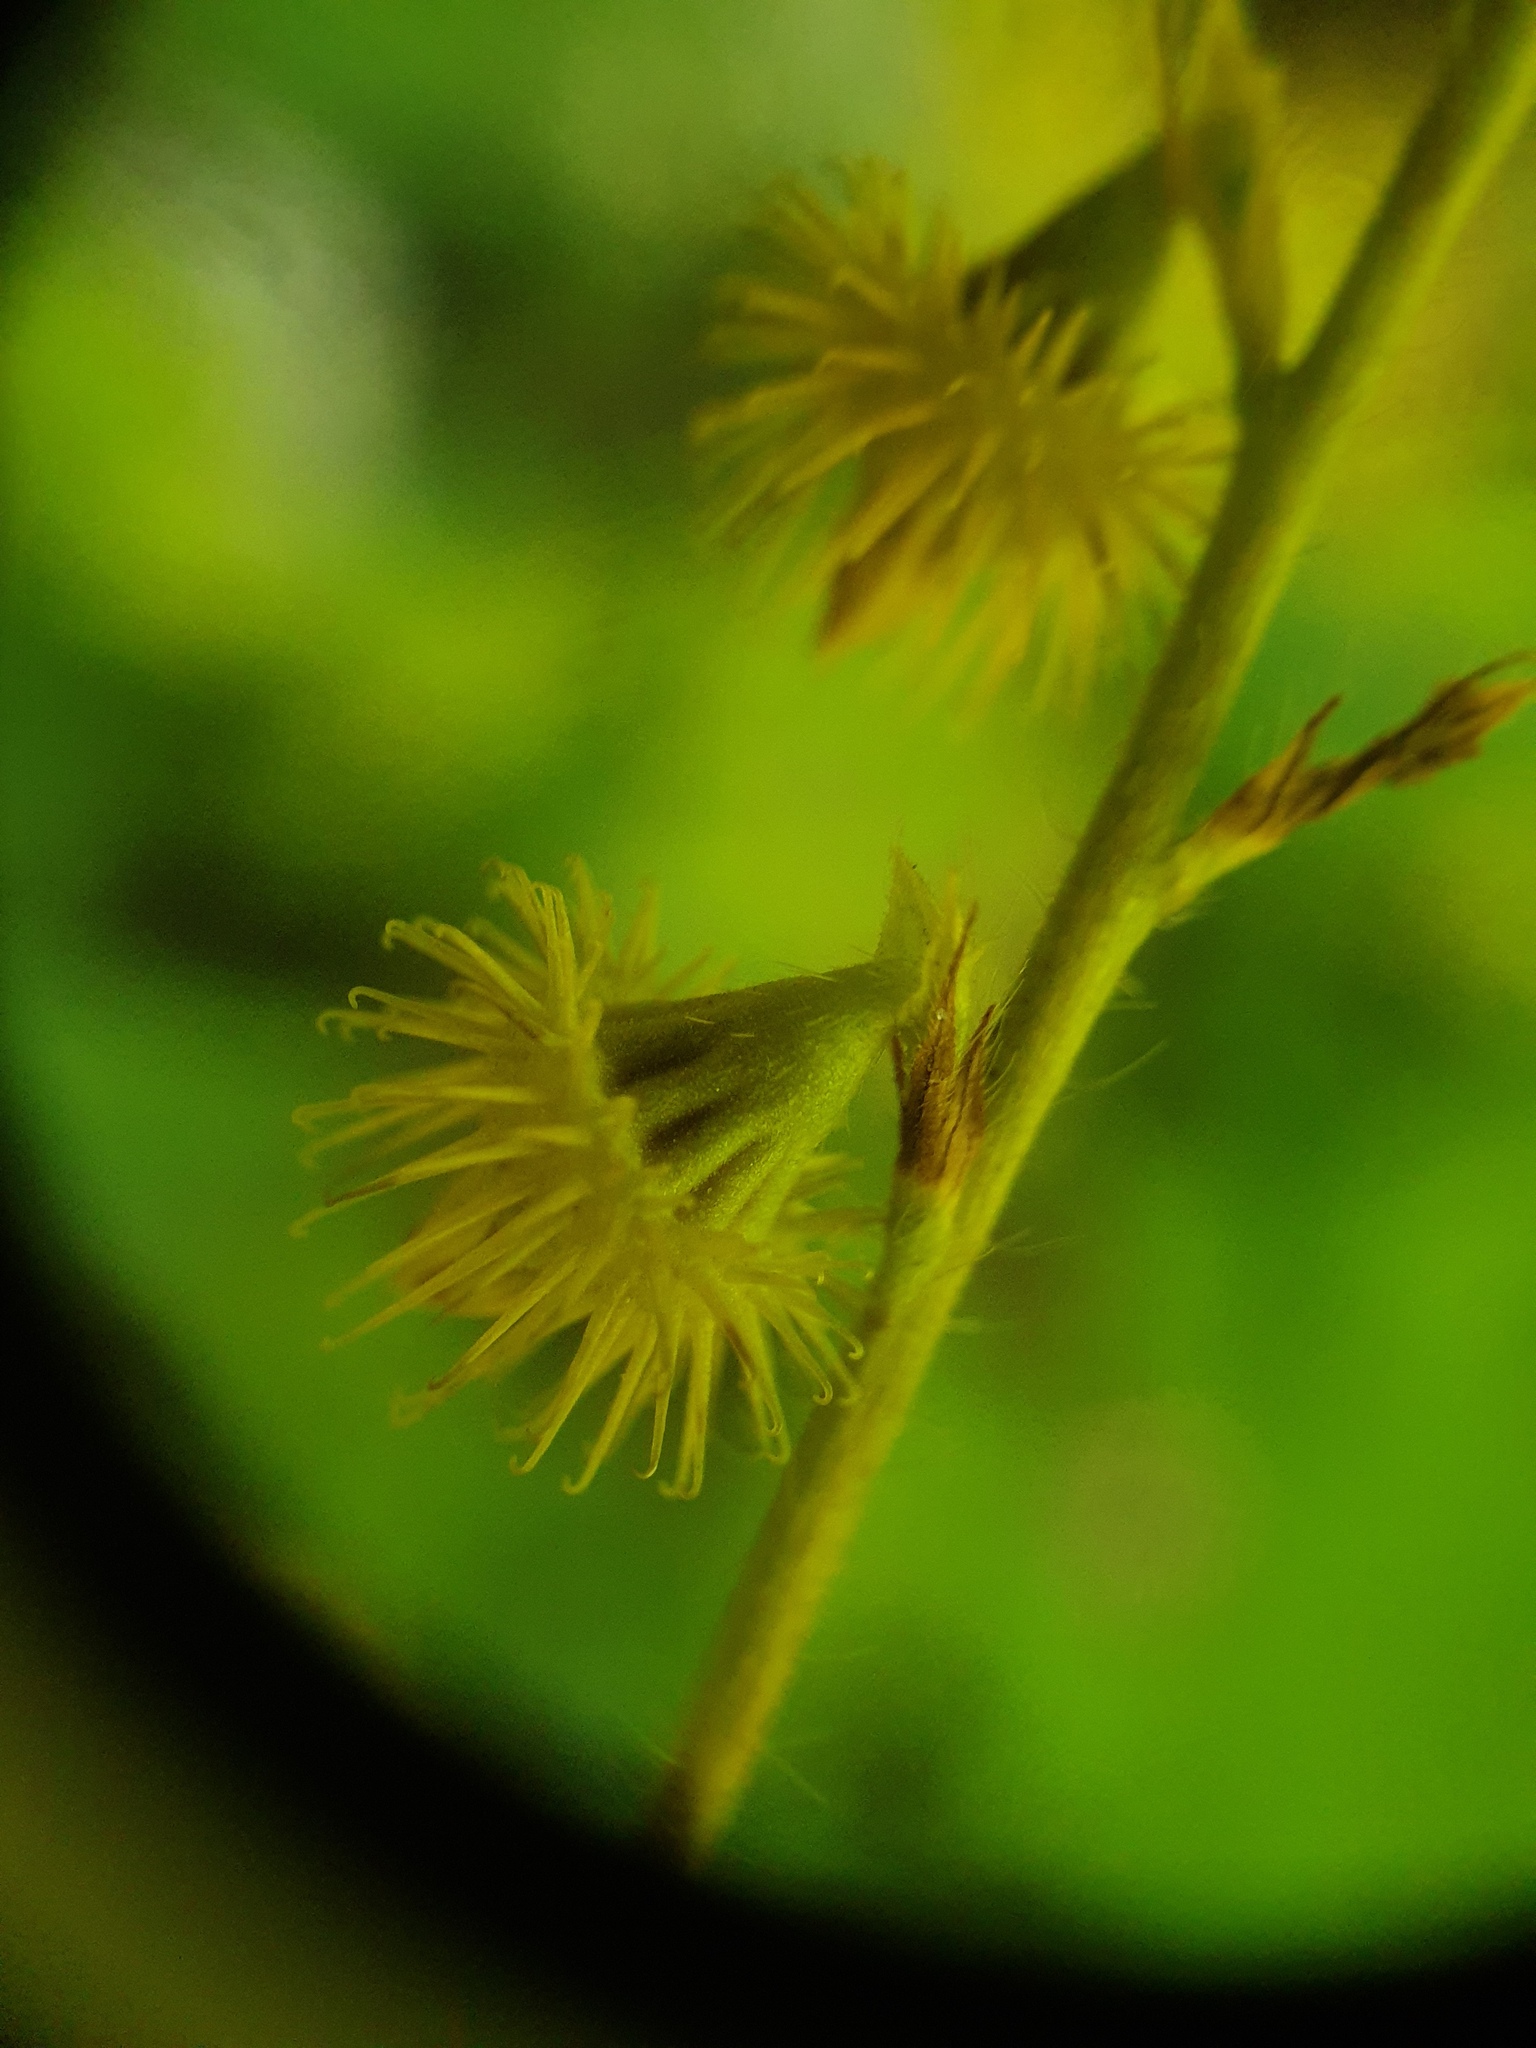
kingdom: Plantae
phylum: Tracheophyta
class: Magnoliopsida
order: Rosales
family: Rosaceae
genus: Agrimonia
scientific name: Agrimonia gryposepala
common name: Common agrimony
